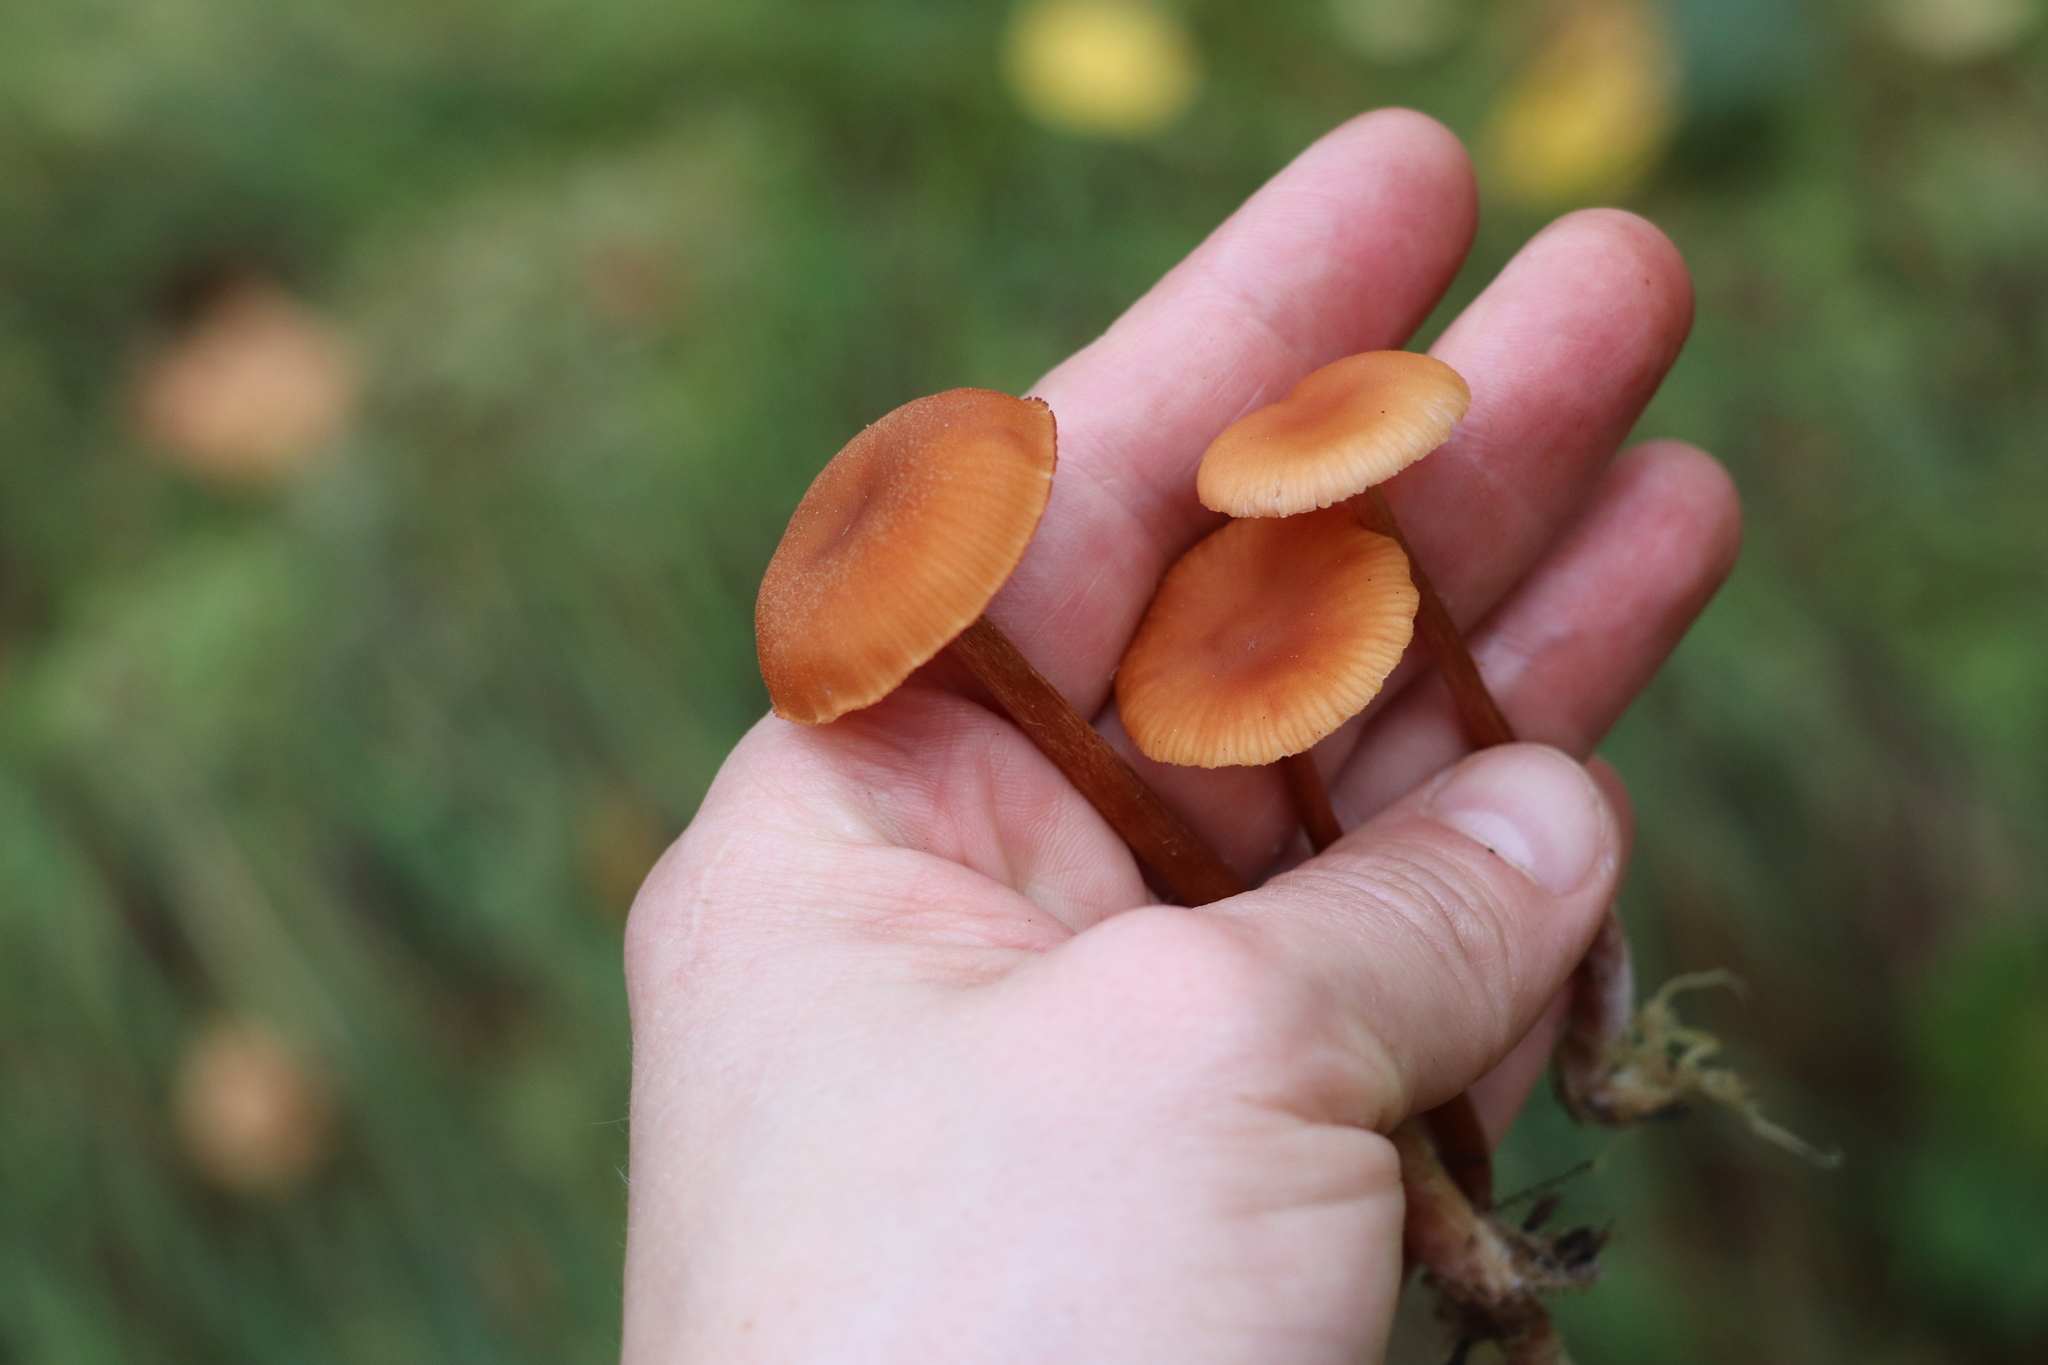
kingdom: Fungi
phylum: Basidiomycota
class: Agaricomycetes
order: Agaricales
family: Hydnangiaceae
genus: Laccaria
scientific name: Laccaria laccata
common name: Deceiver
